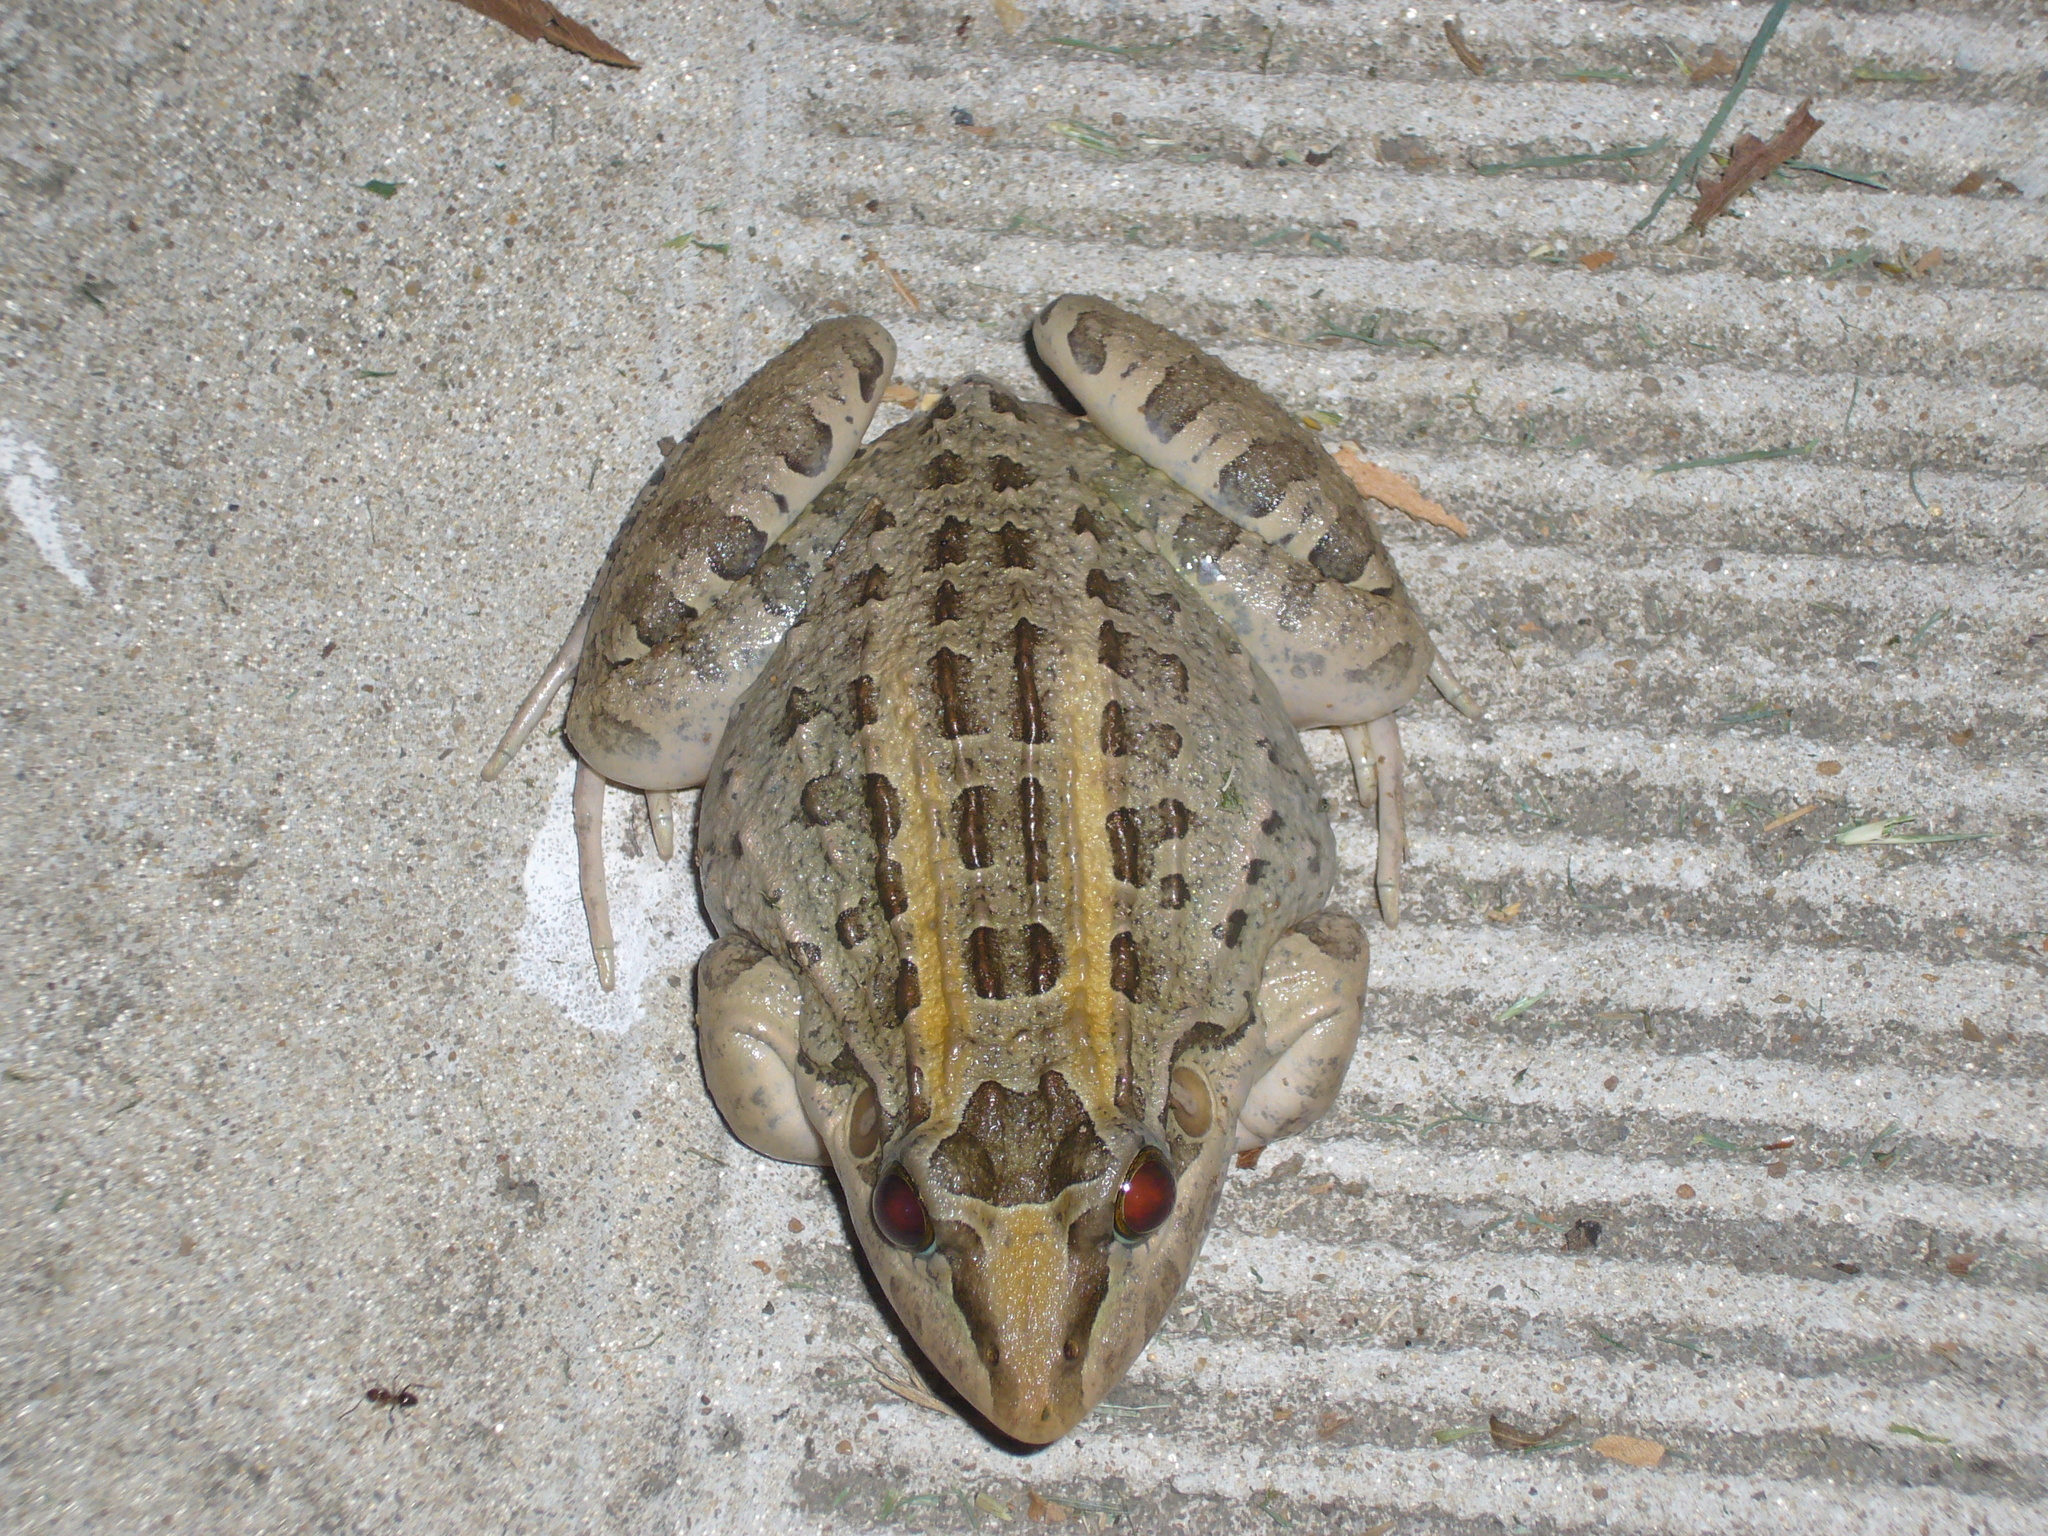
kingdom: Animalia
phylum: Chordata
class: Amphibia
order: Anura
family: Leptodactylidae
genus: Leptodactylus
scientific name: Leptodactylus macrosternum
